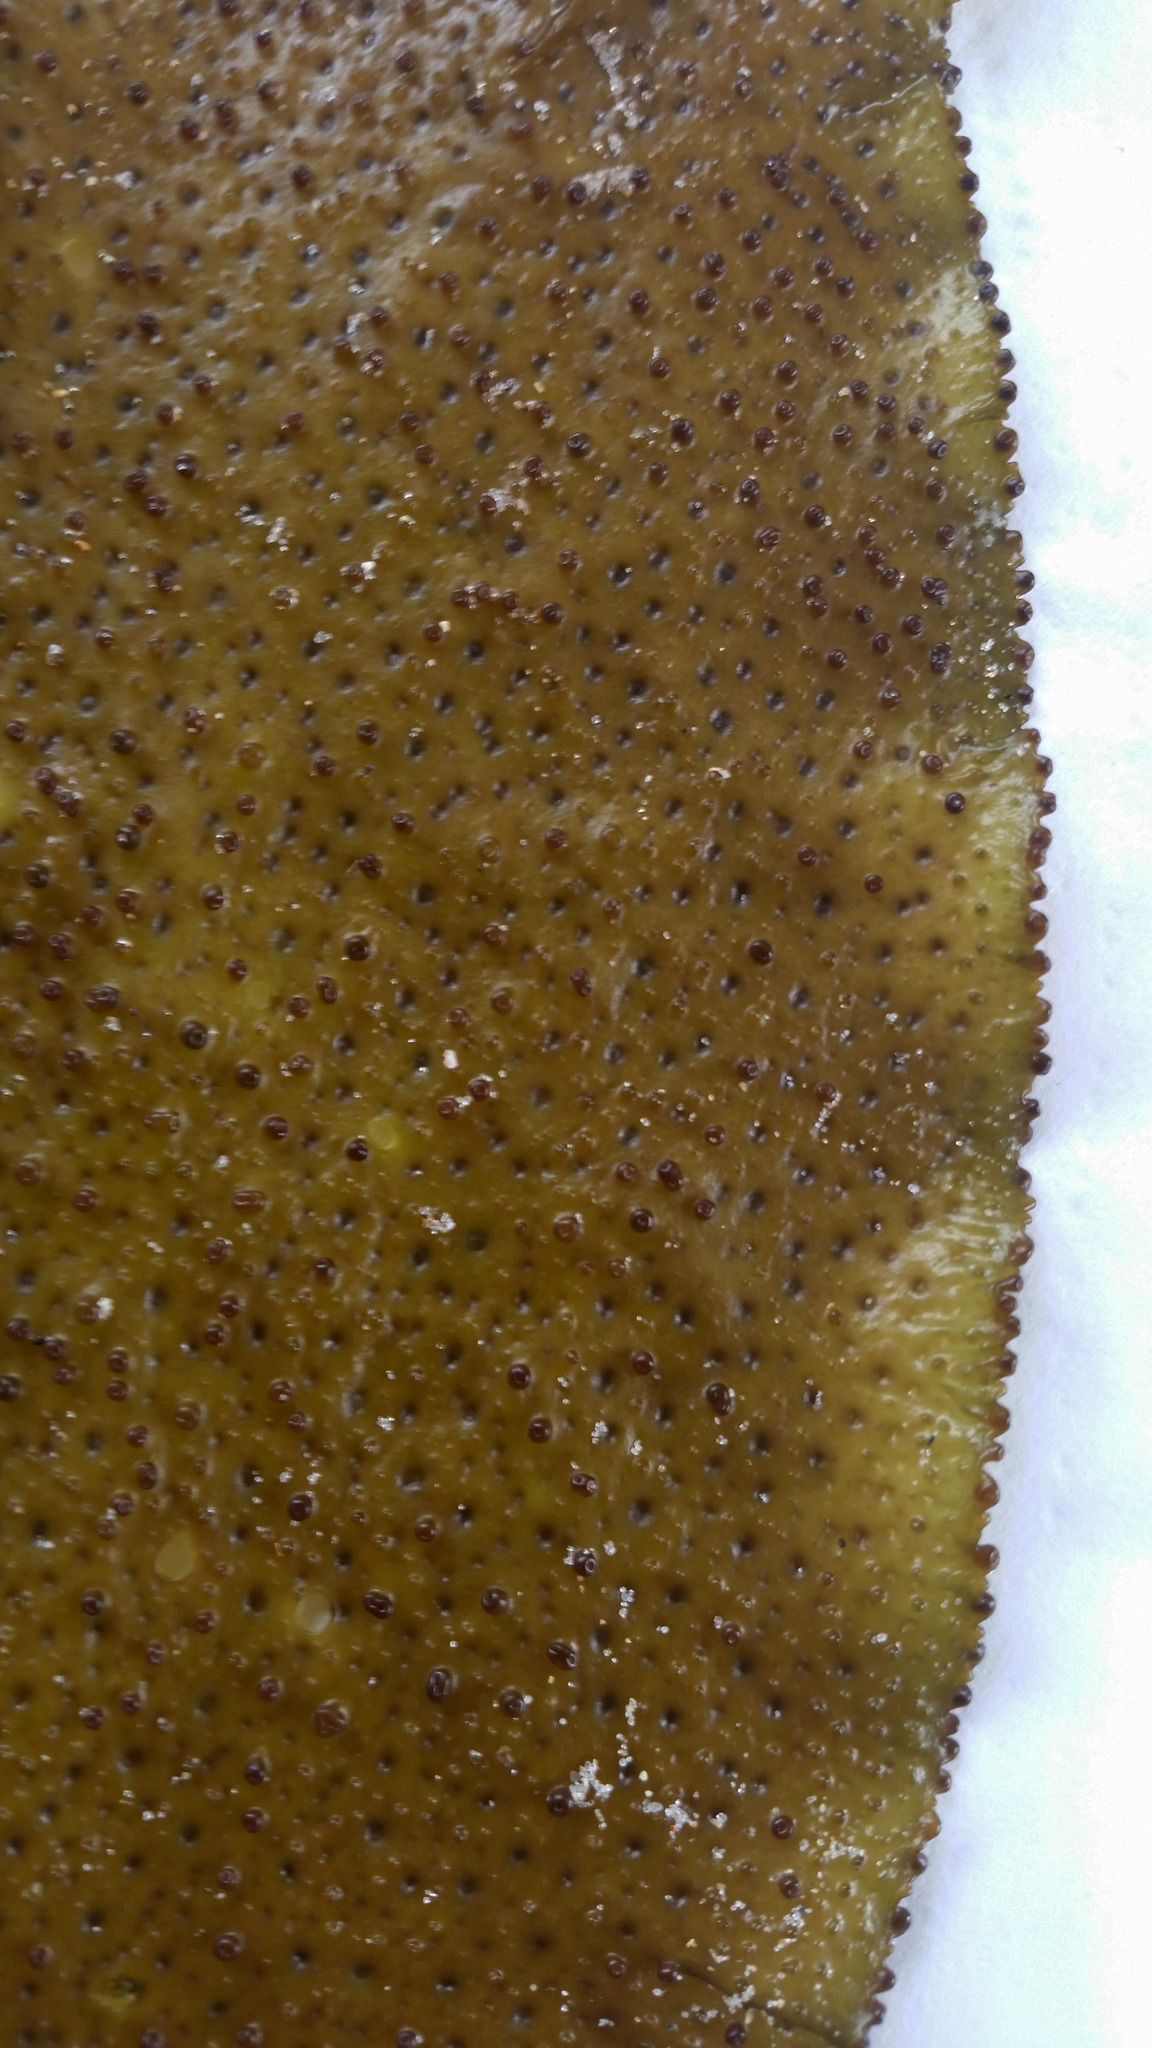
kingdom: Plantae
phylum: Rhodophyta
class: Florideophyceae
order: Gigartinales
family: Gigartinaceae
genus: Sarcothalia
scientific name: Sarcothalia
